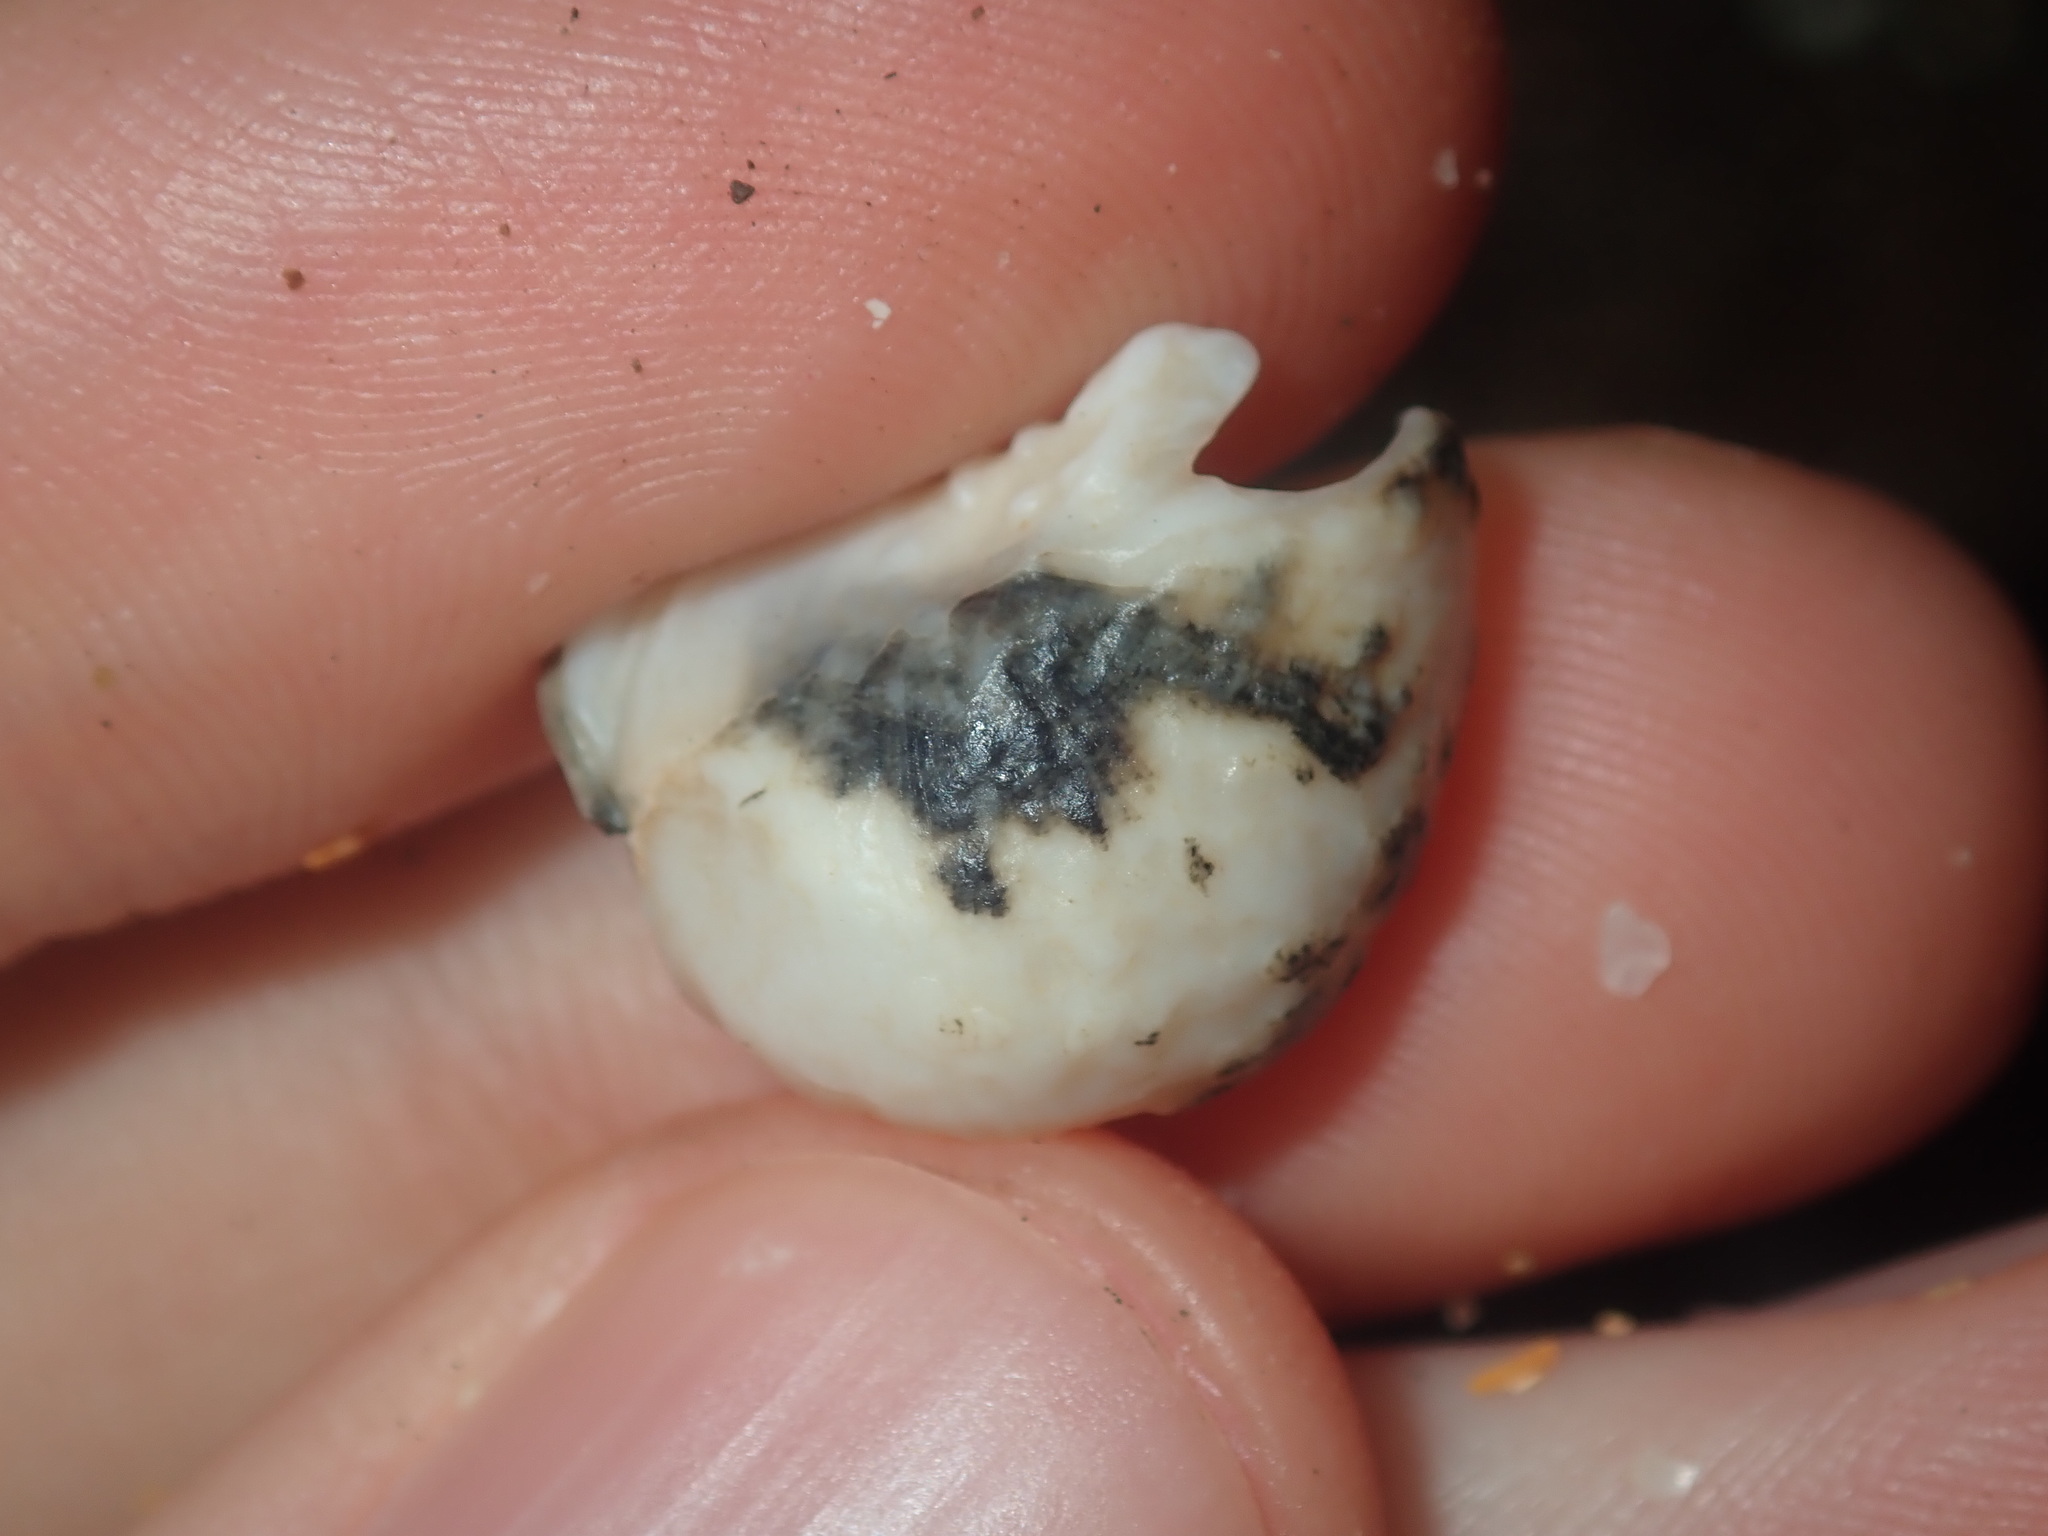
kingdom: Animalia
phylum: Mollusca
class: Gastropoda
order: Cycloneritida
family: Neritidae
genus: Nerita
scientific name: Nerita albicilla
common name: Blotched nerite
